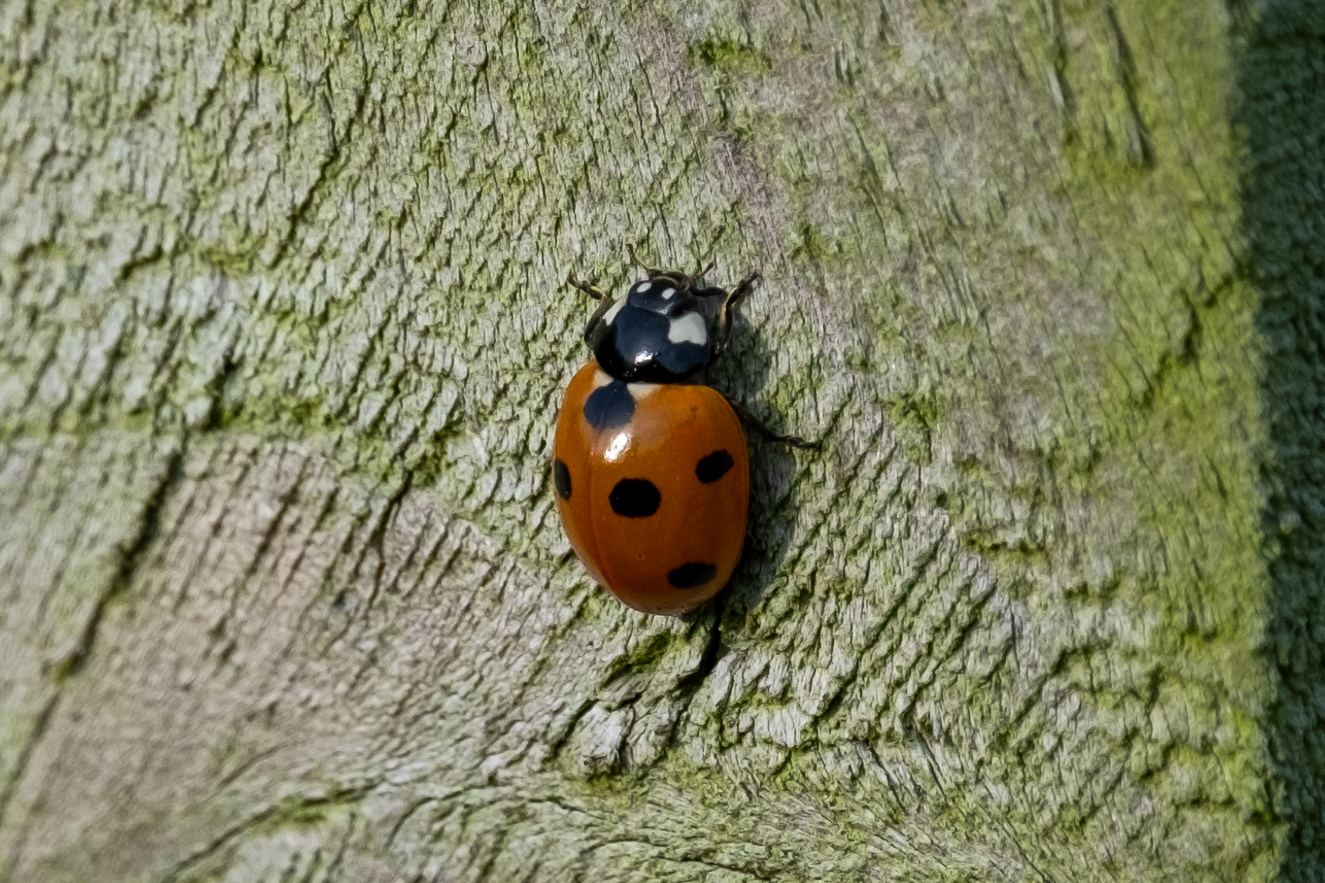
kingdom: Animalia
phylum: Arthropoda
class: Insecta
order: Coleoptera
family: Coccinellidae
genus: Coccinella
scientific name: Coccinella septempunctata
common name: Sevenspotted lady beetle
